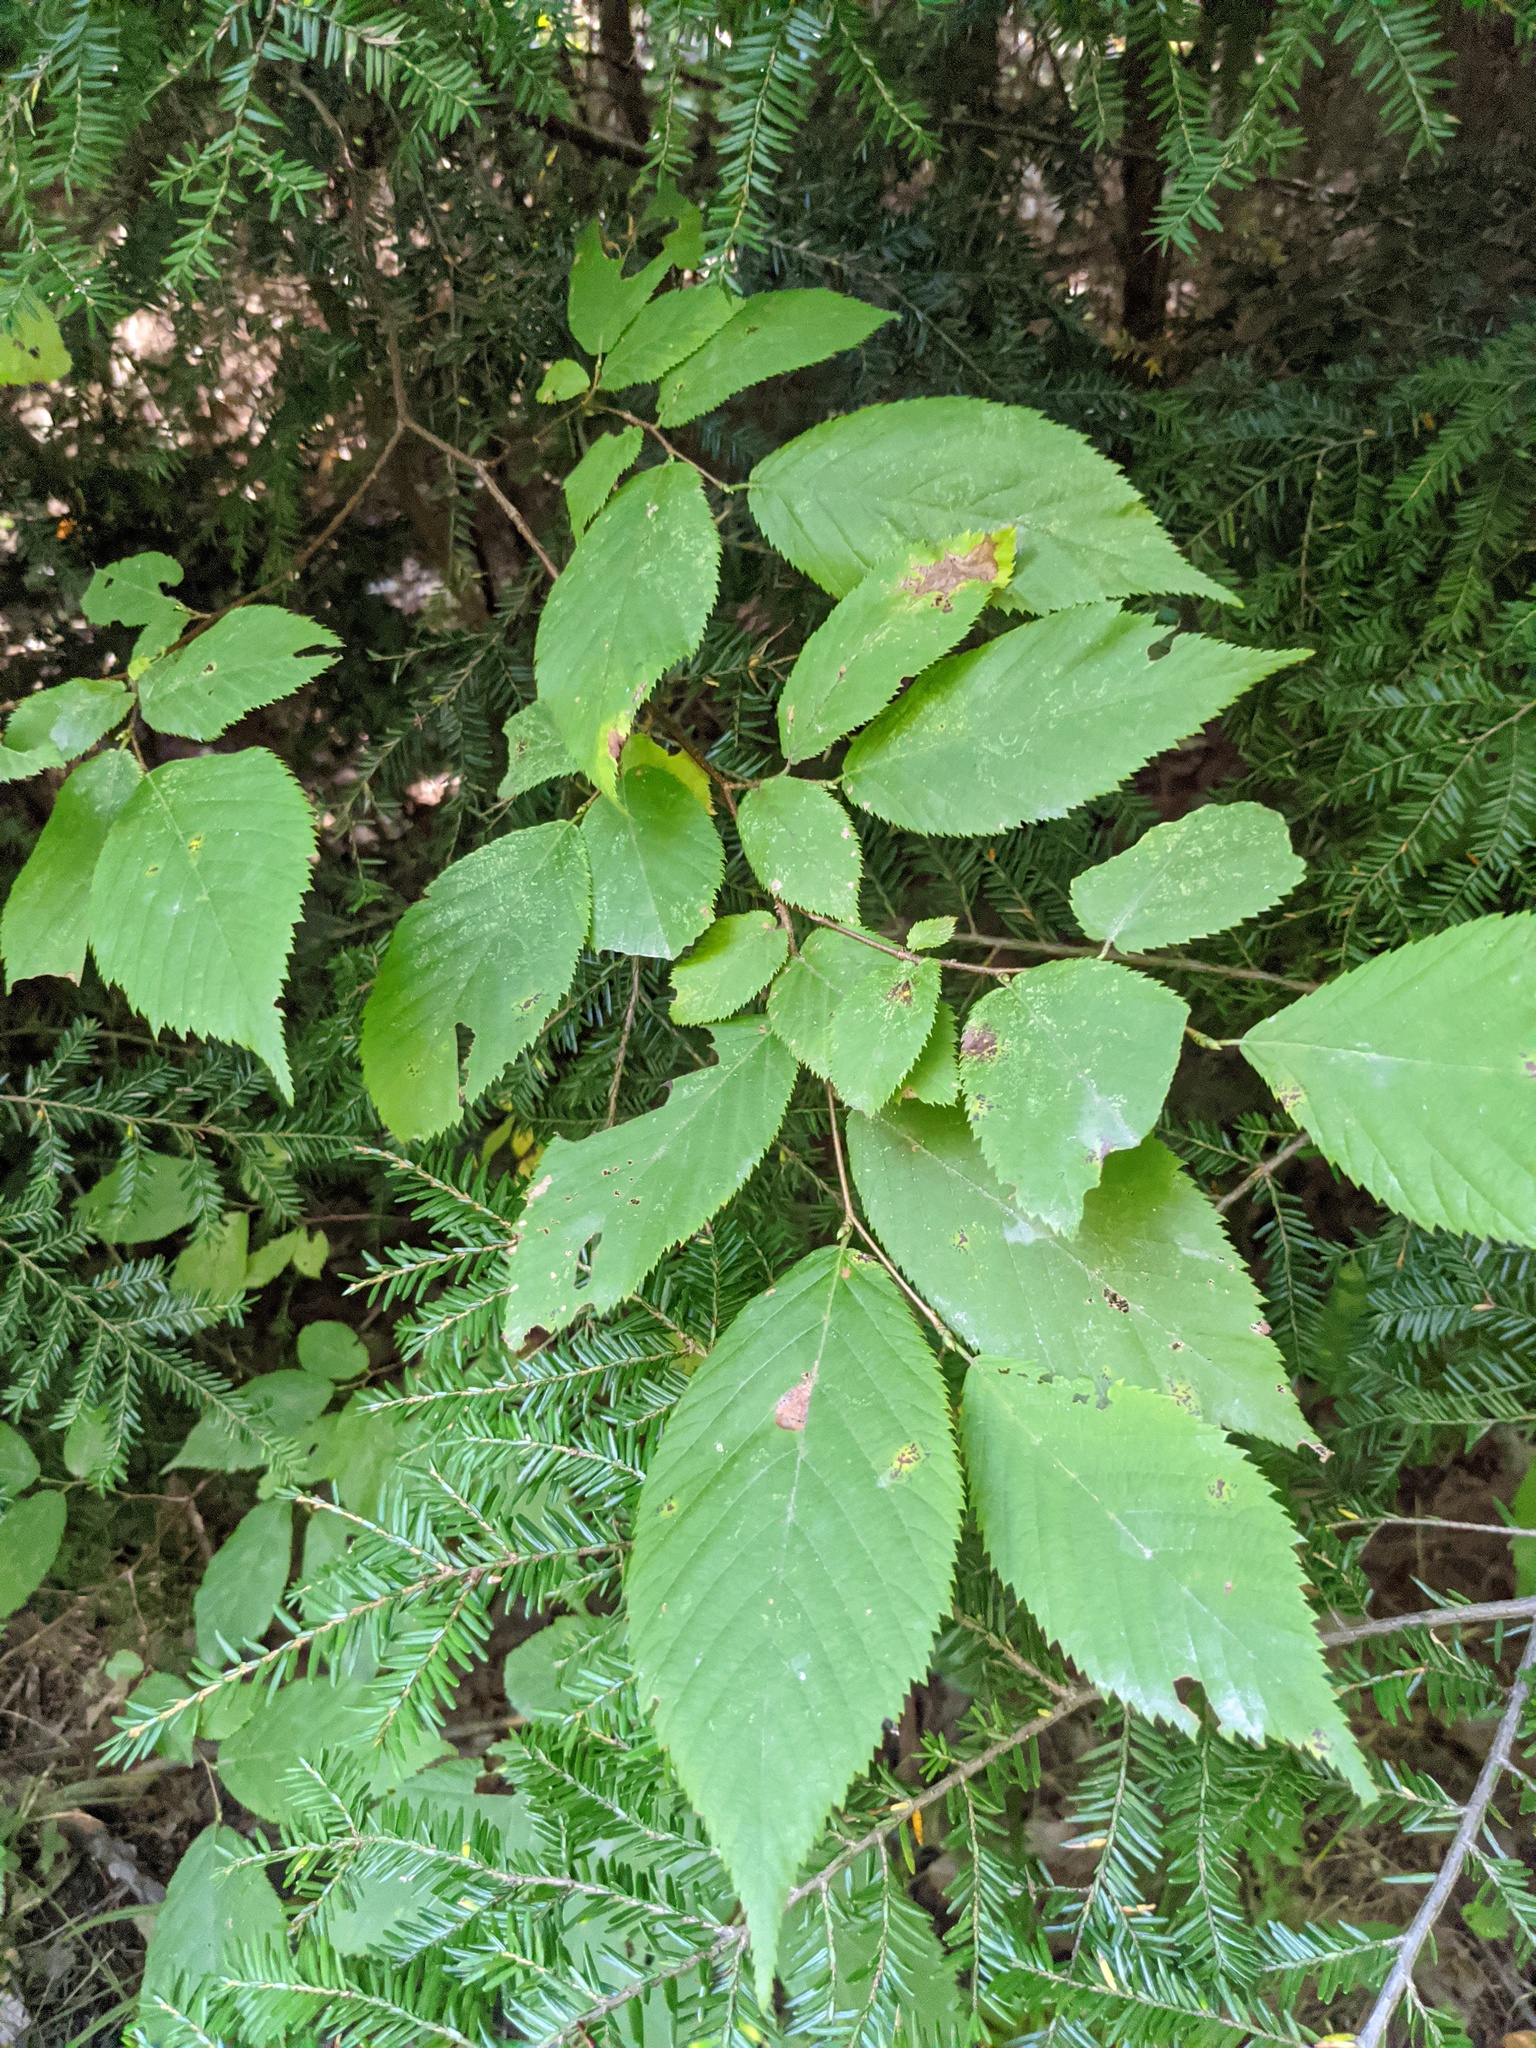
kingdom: Plantae
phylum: Tracheophyta
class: Pinopsida
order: Pinales
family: Pinaceae
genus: Tsuga
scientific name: Tsuga canadensis
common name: Eastern hemlock
